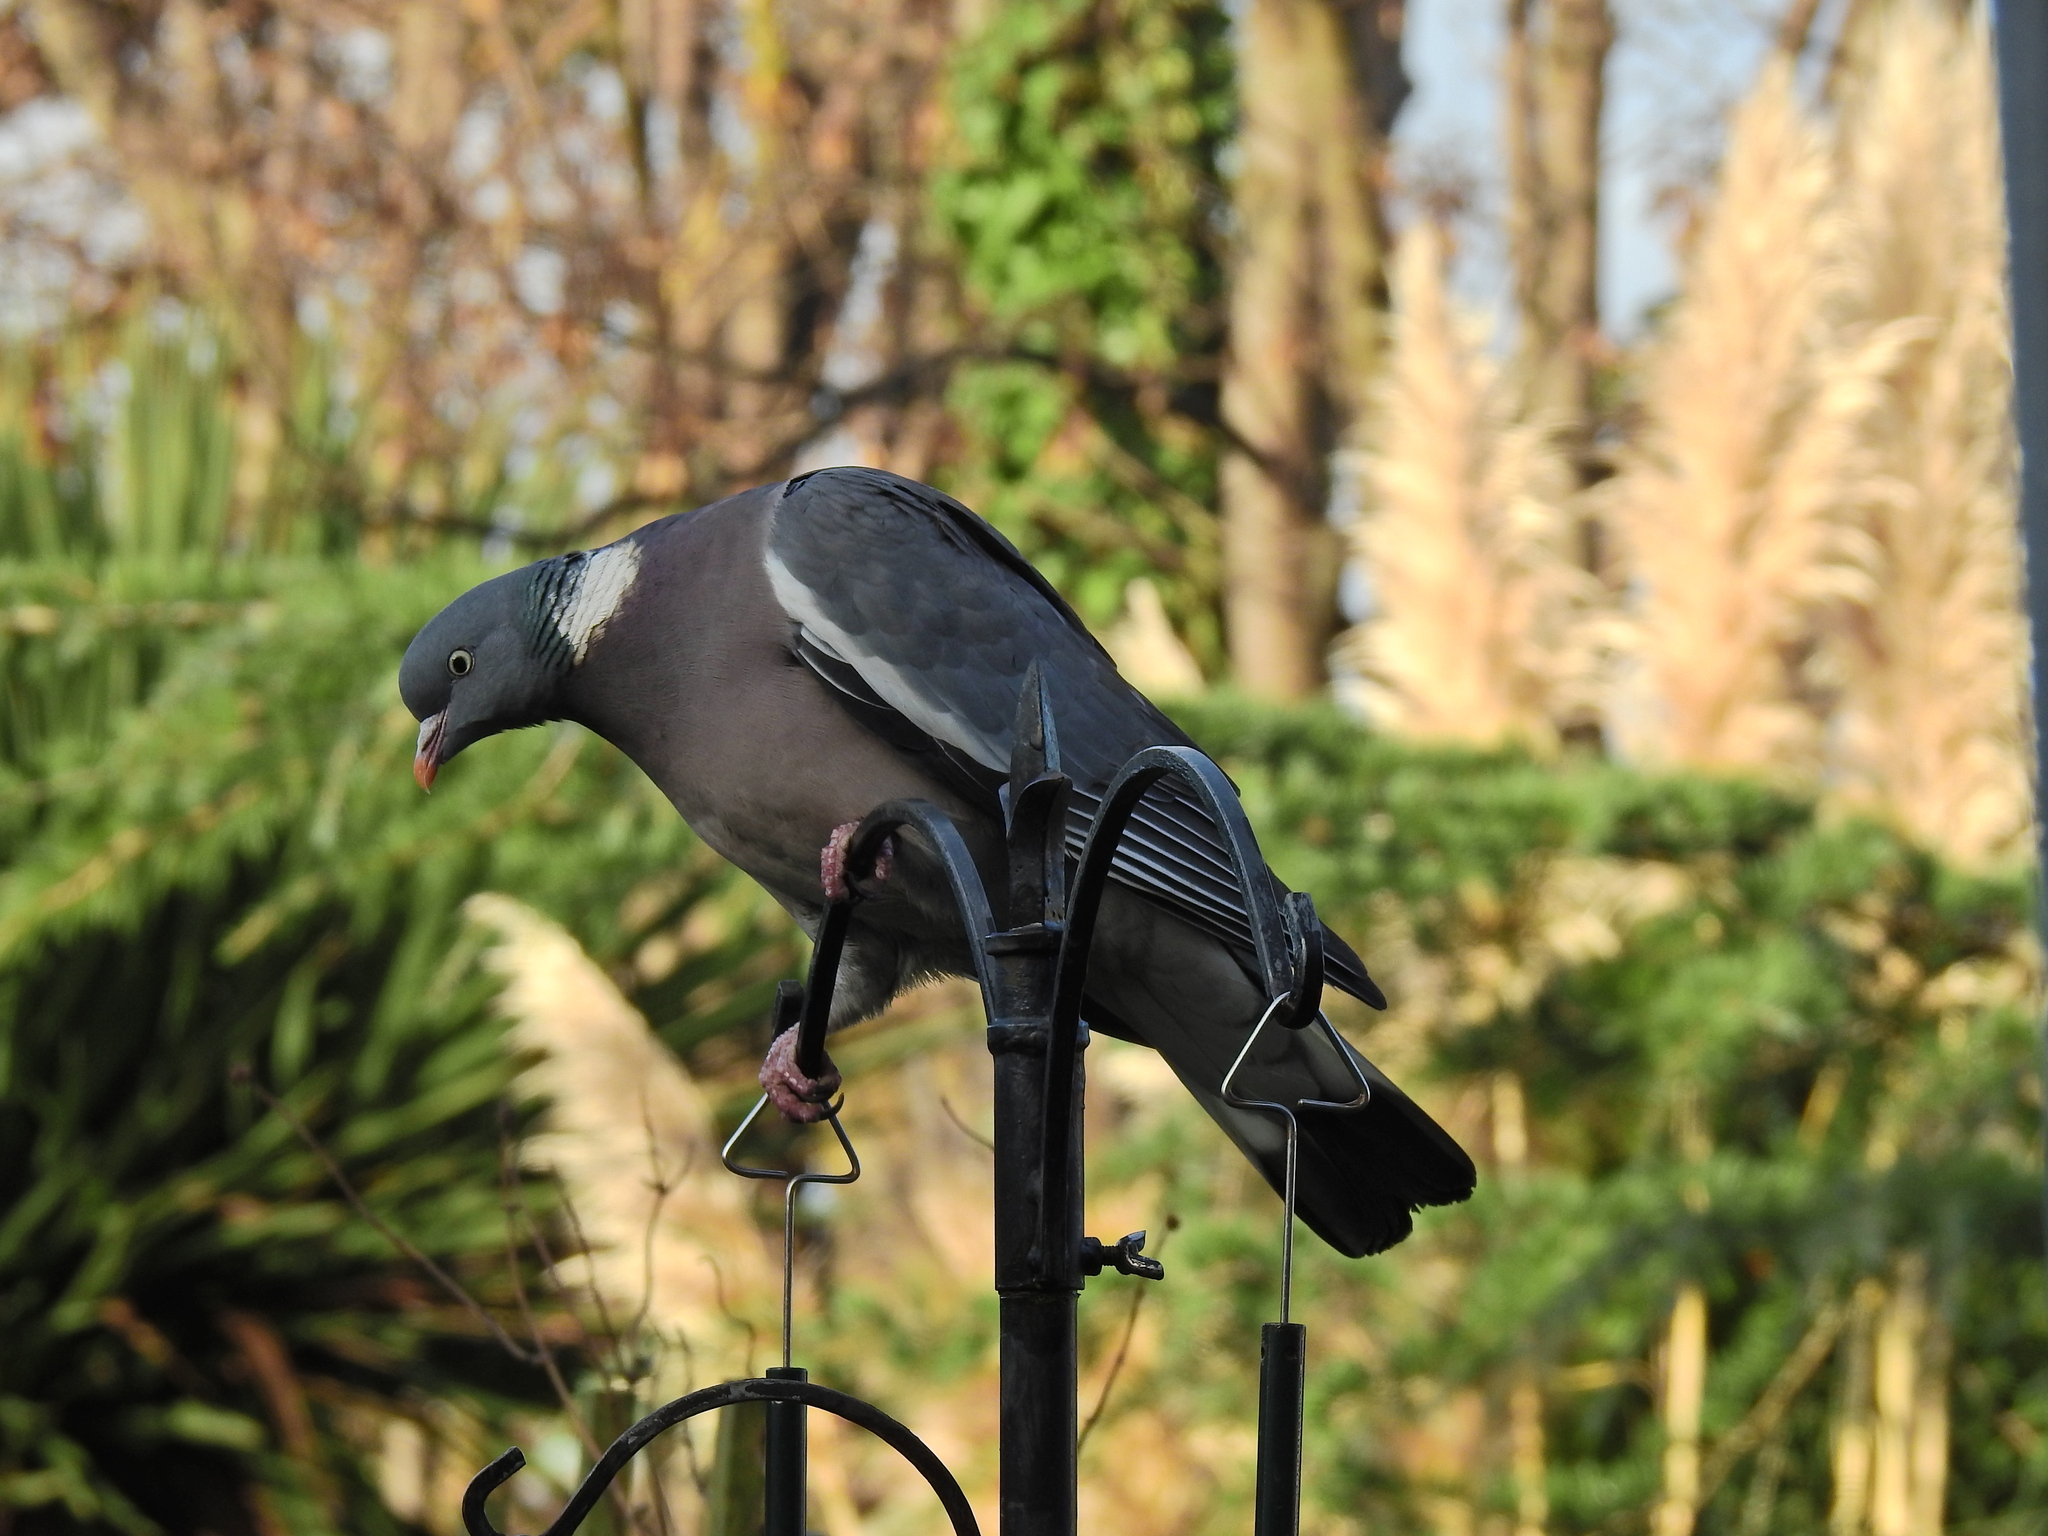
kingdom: Animalia
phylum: Chordata
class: Aves
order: Columbiformes
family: Columbidae
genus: Columba
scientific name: Columba palumbus
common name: Common wood pigeon
